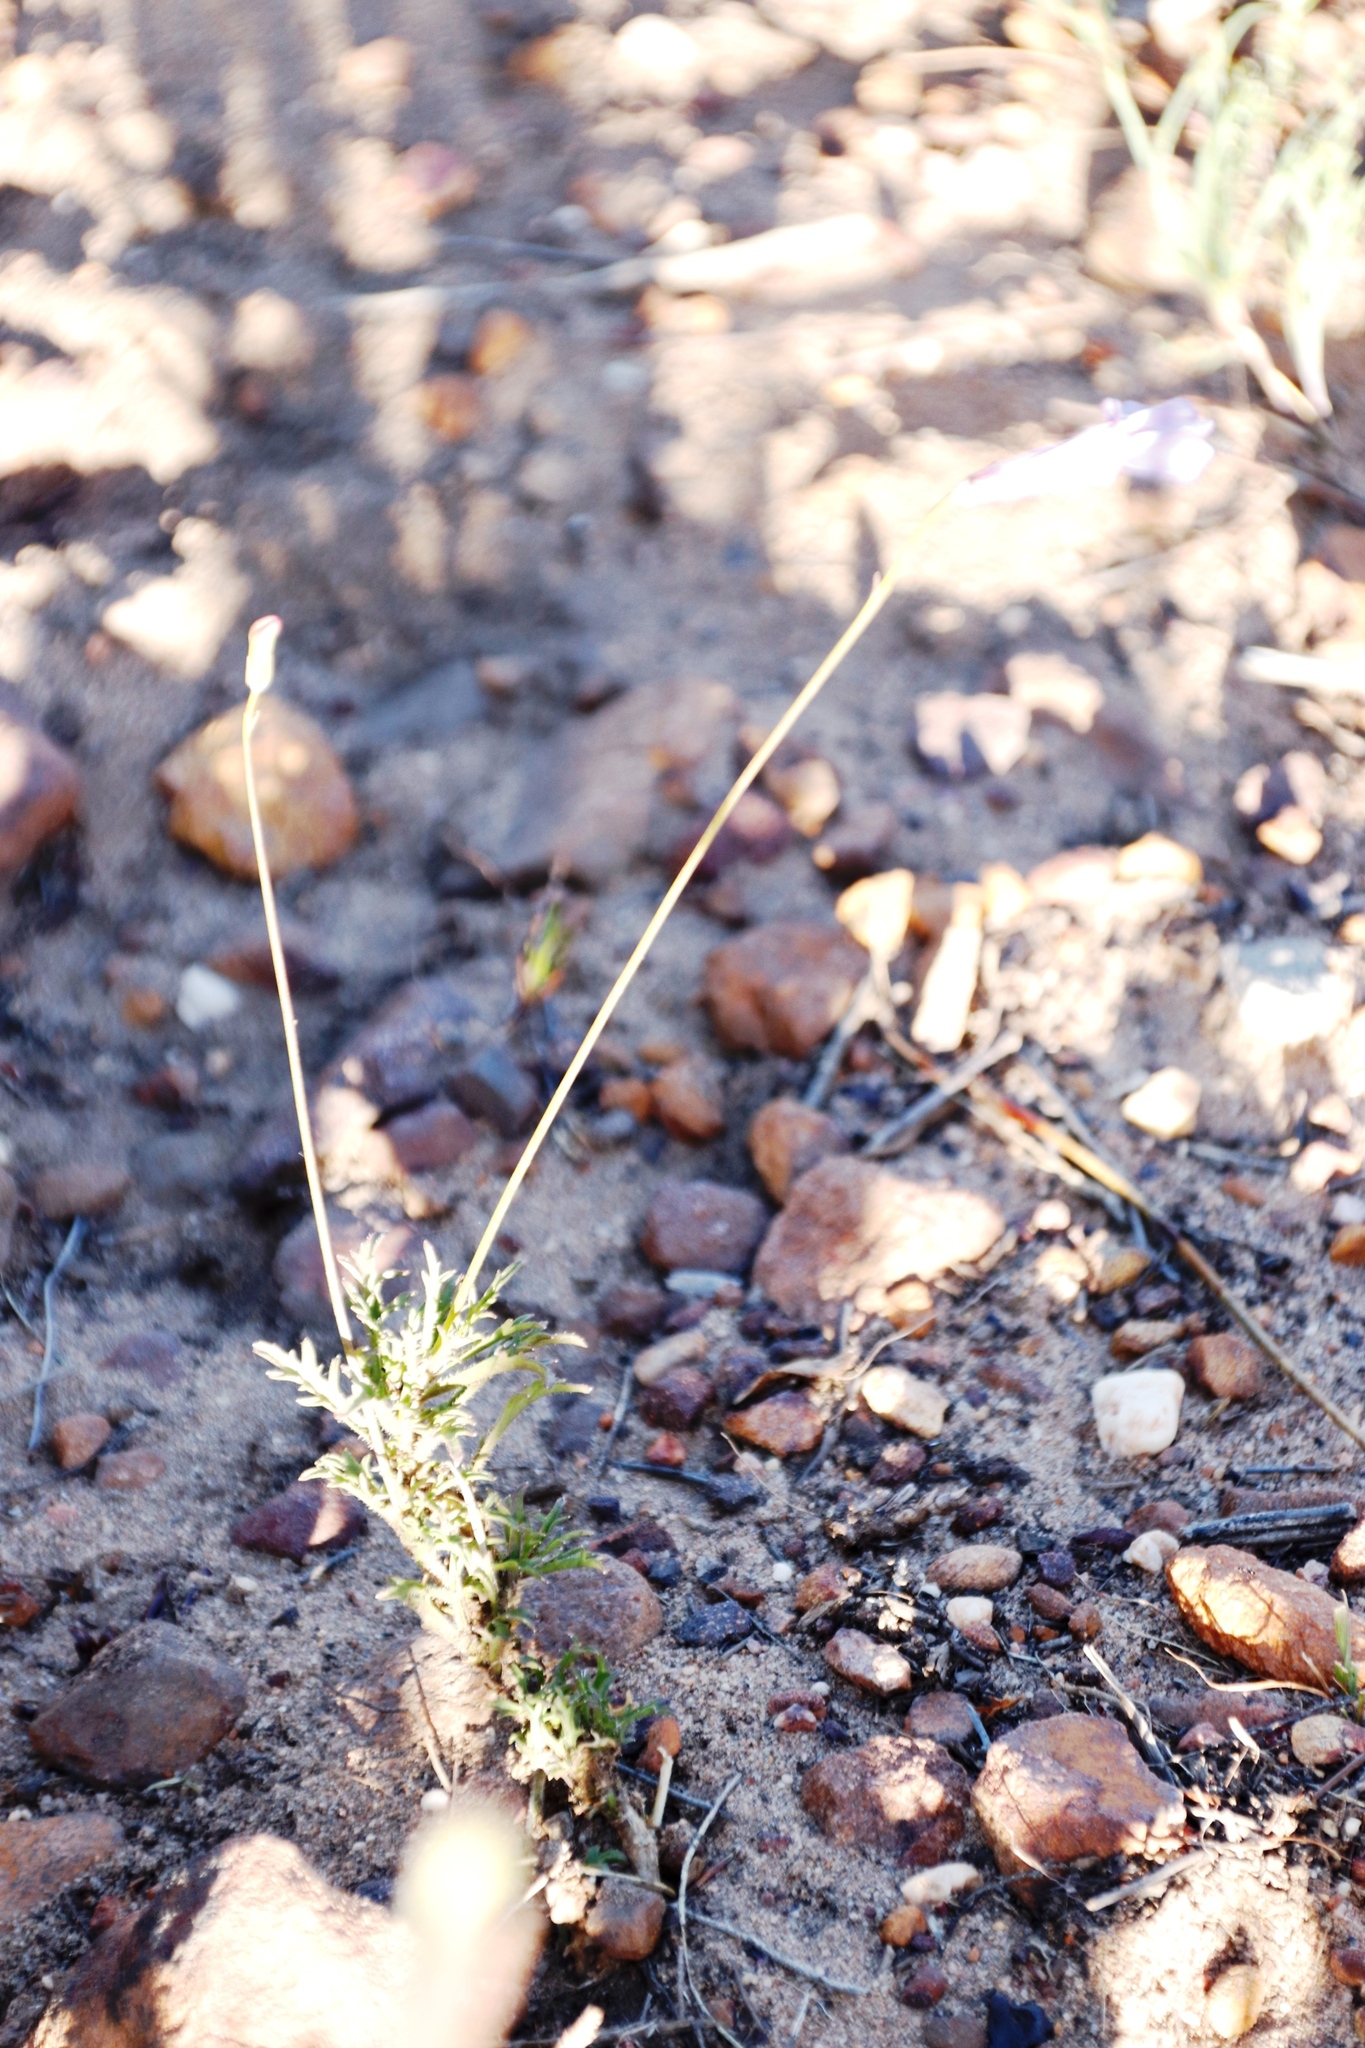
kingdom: Plantae
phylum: Tracheophyta
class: Magnoliopsida
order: Asterales
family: Campanulaceae
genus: Lobelia
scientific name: Lobelia coronopifolia
